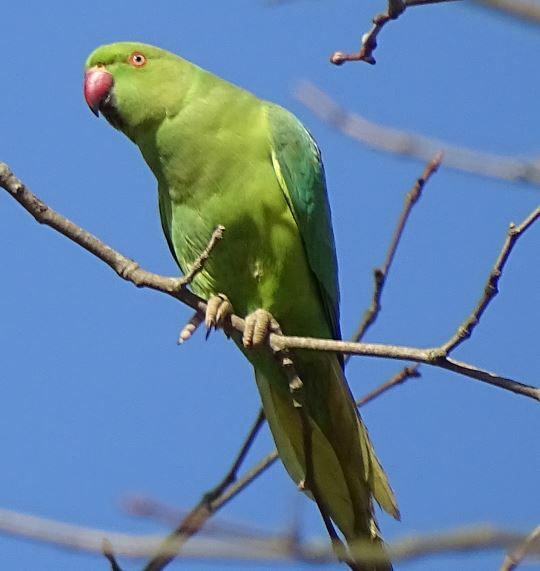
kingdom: Animalia
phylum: Chordata
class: Aves
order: Psittaciformes
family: Psittacidae
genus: Psittacula
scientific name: Psittacula krameri
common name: Rose-ringed parakeet
